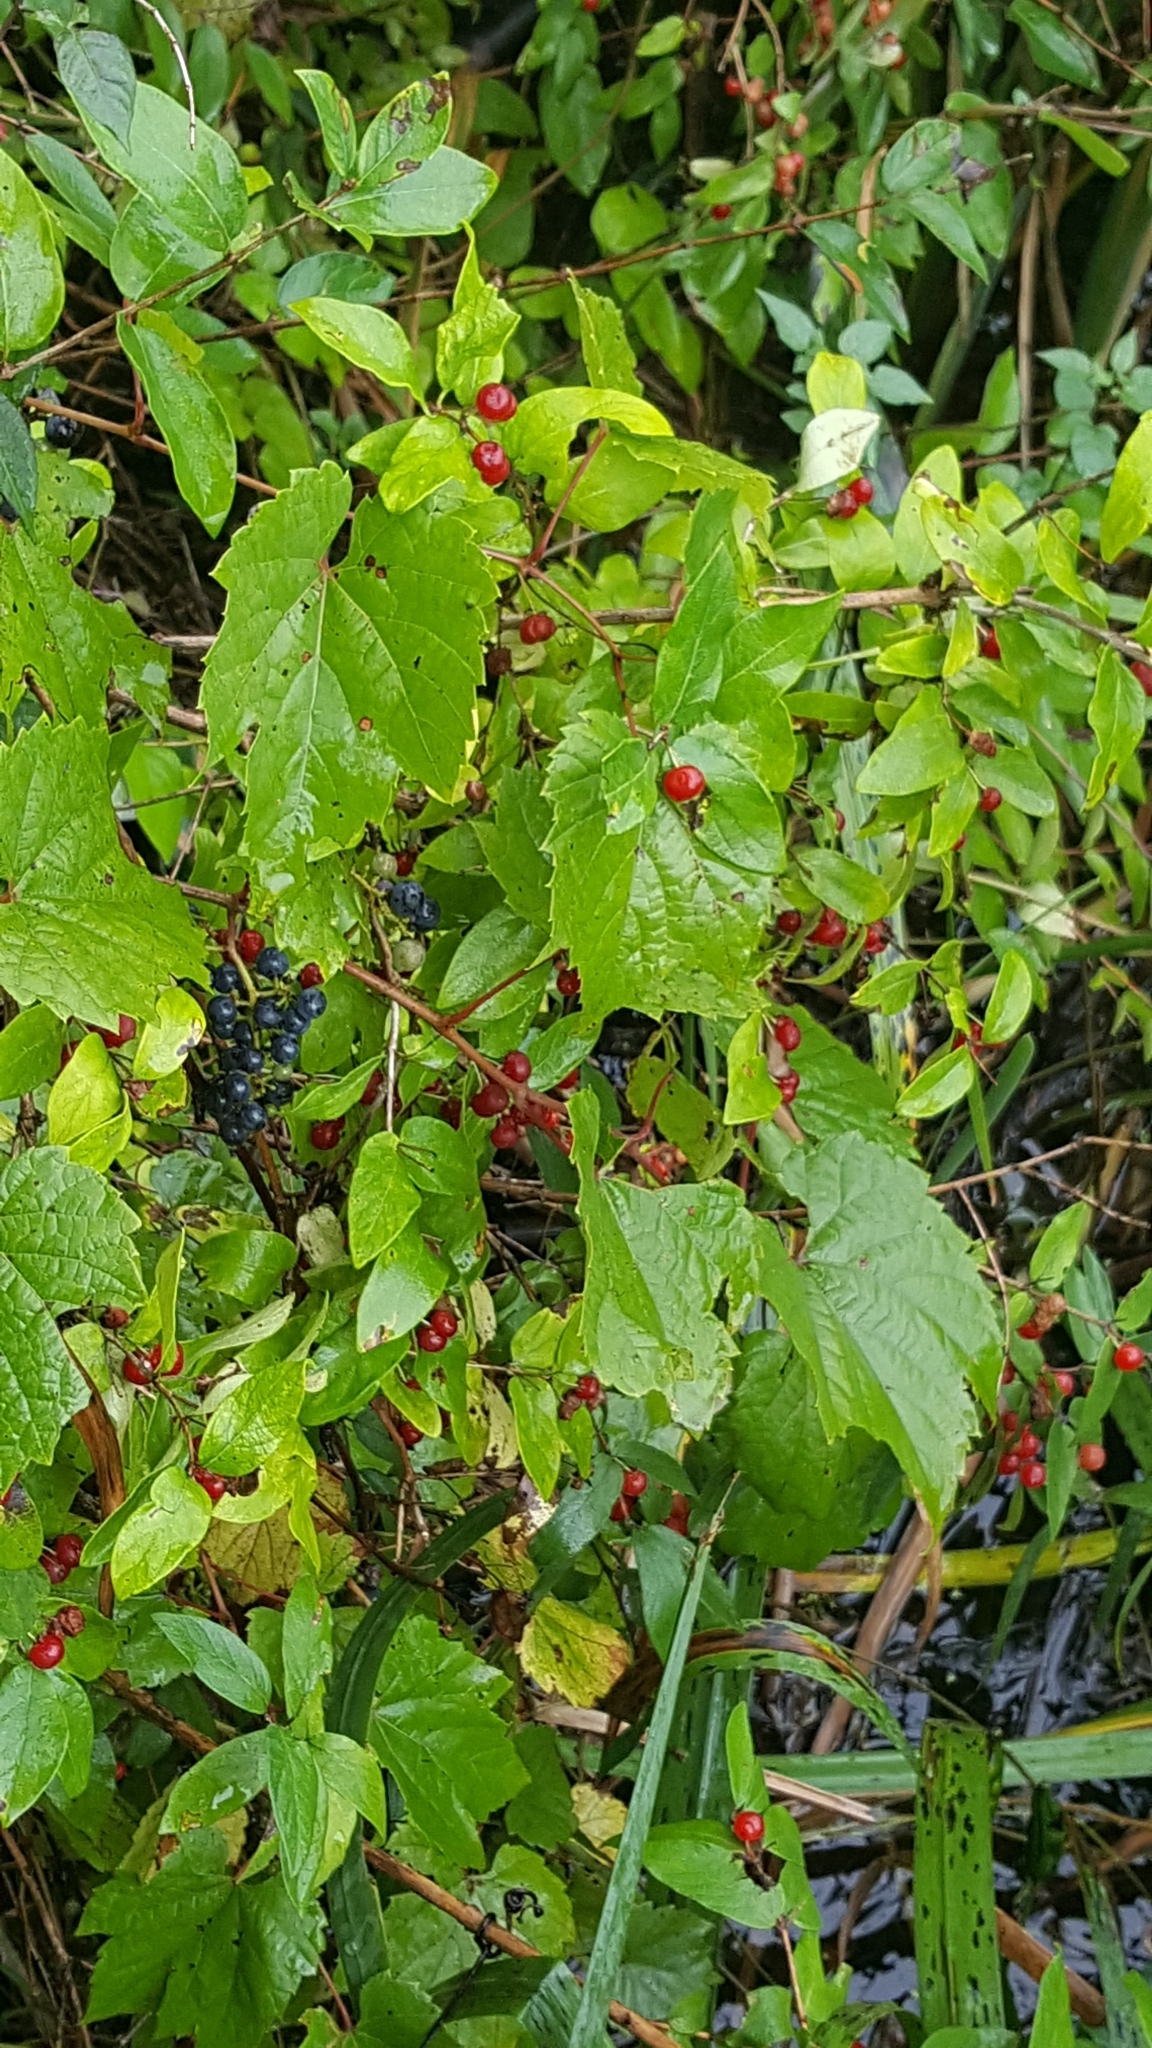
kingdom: Plantae
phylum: Tracheophyta
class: Magnoliopsida
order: Vitales
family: Vitaceae
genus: Vitis
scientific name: Vitis riparia
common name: Frost grape
